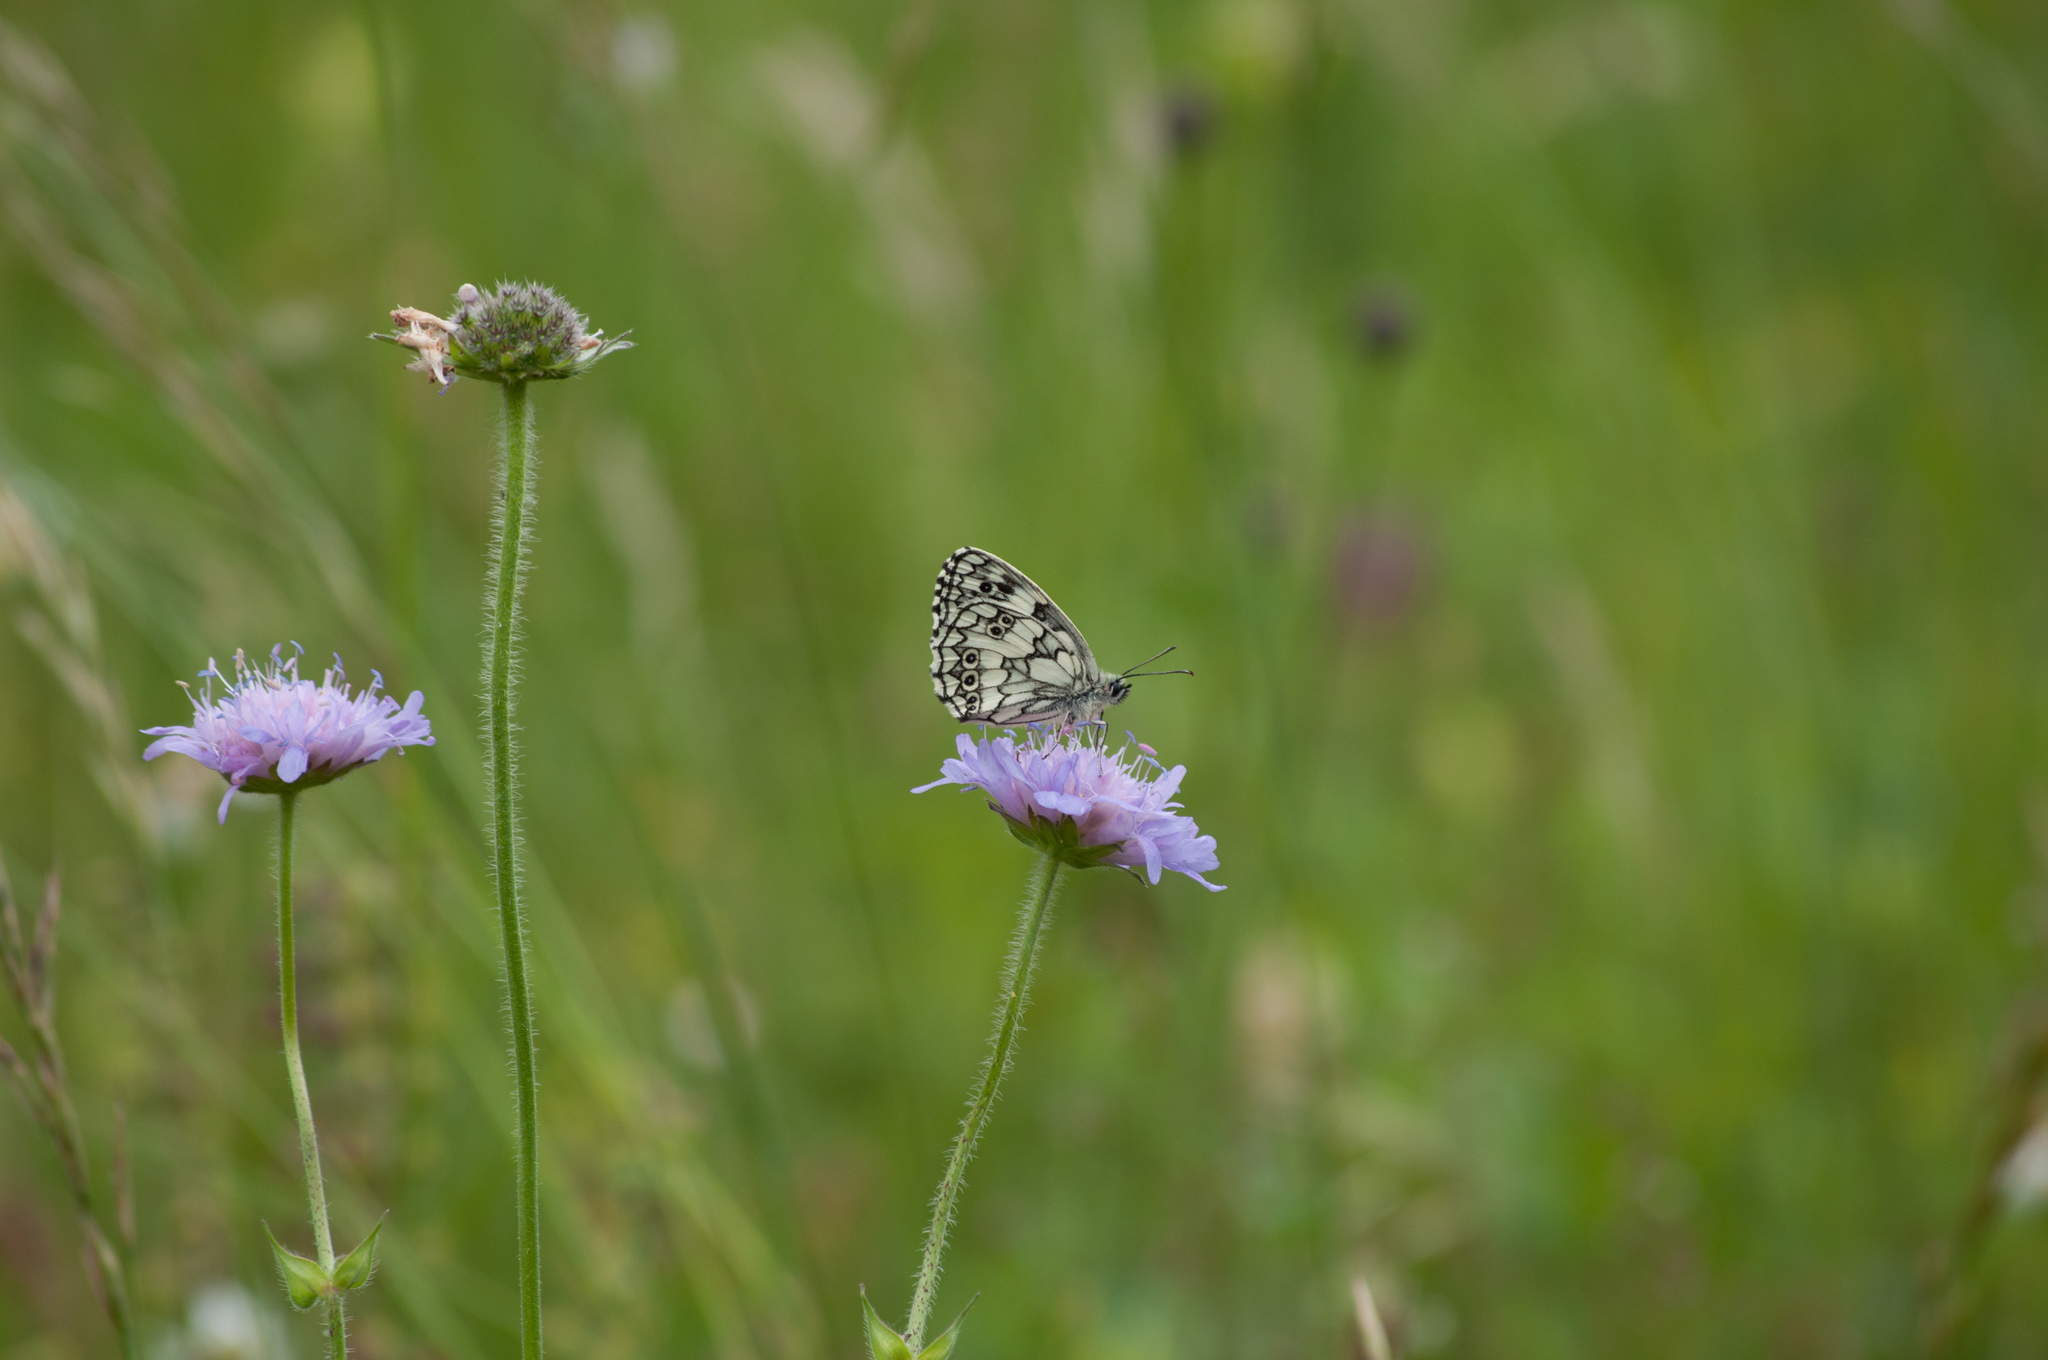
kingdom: Animalia
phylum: Arthropoda
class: Insecta
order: Lepidoptera
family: Nymphalidae
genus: Melanargia
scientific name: Melanargia galathea
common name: Marbled white
